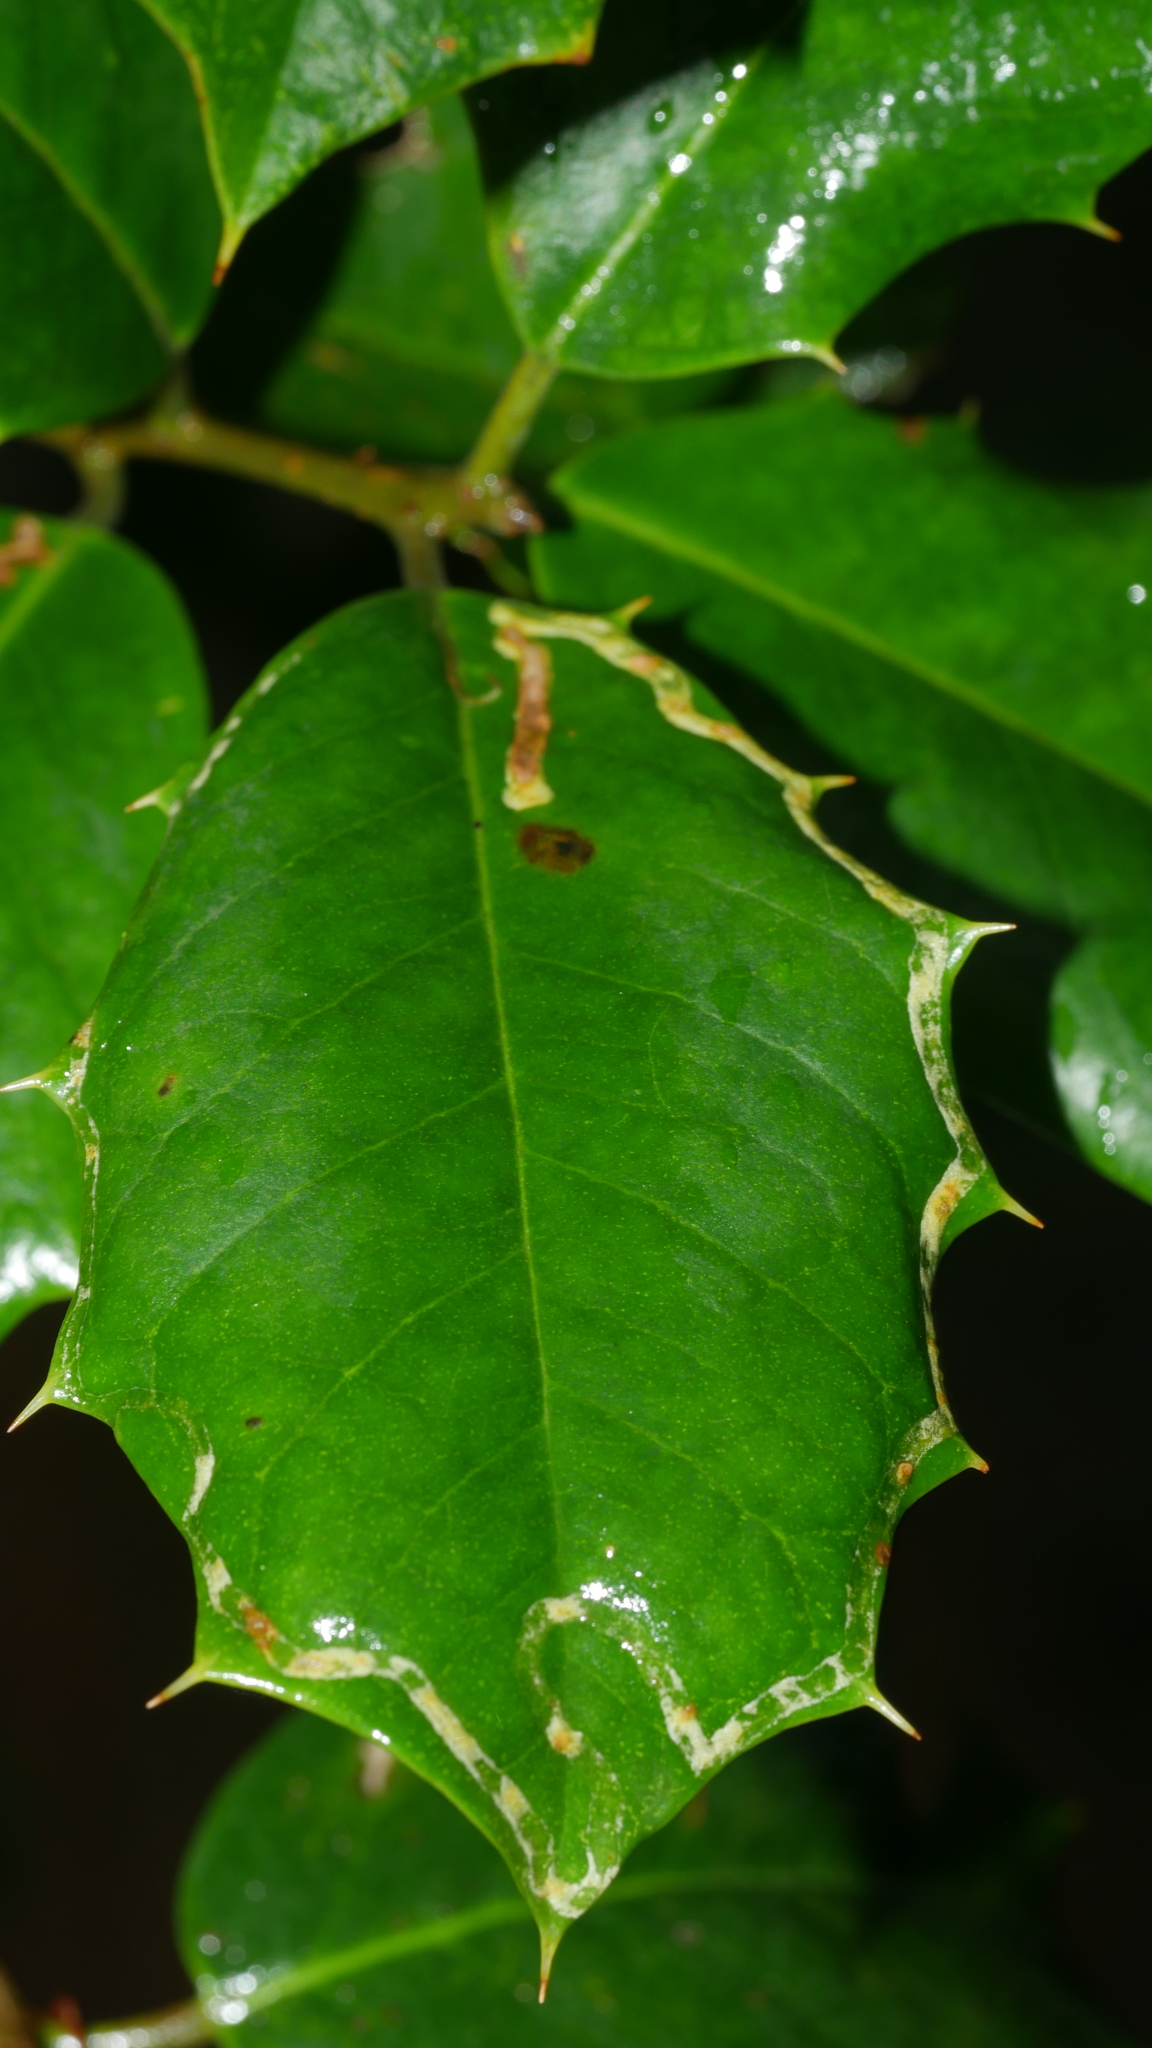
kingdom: Animalia
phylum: Arthropoda
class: Insecta
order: Diptera
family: Agromyzidae
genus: Phytomyza
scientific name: Phytomyza opacae
